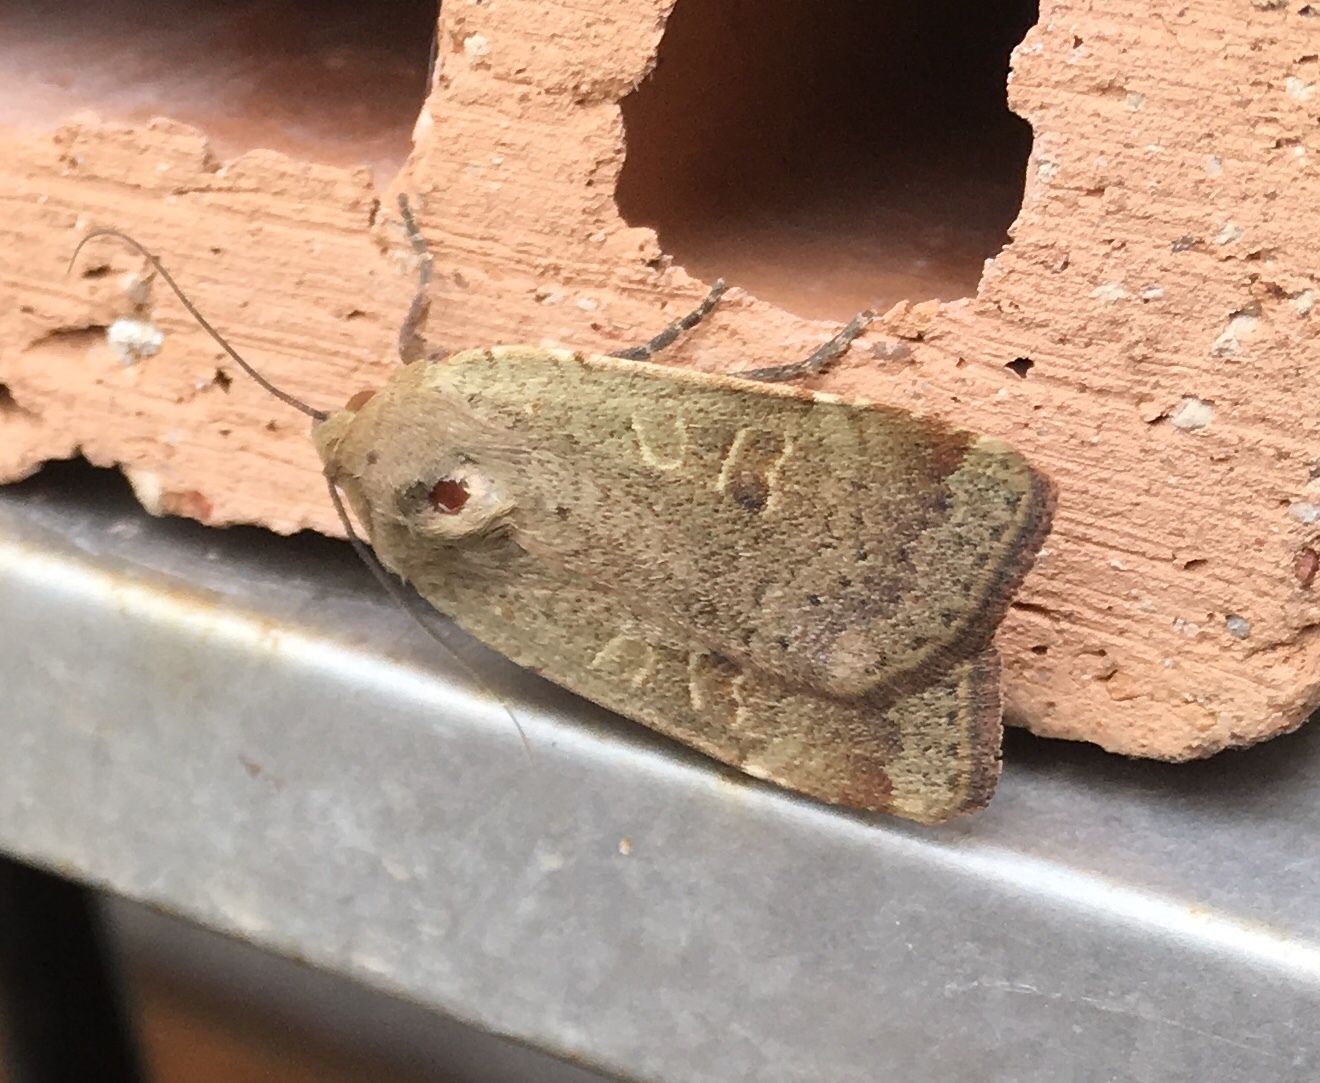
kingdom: Animalia
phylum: Arthropoda
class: Insecta
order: Lepidoptera
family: Noctuidae
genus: Noctua
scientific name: Noctua comes
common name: Lesser yellow underwing
